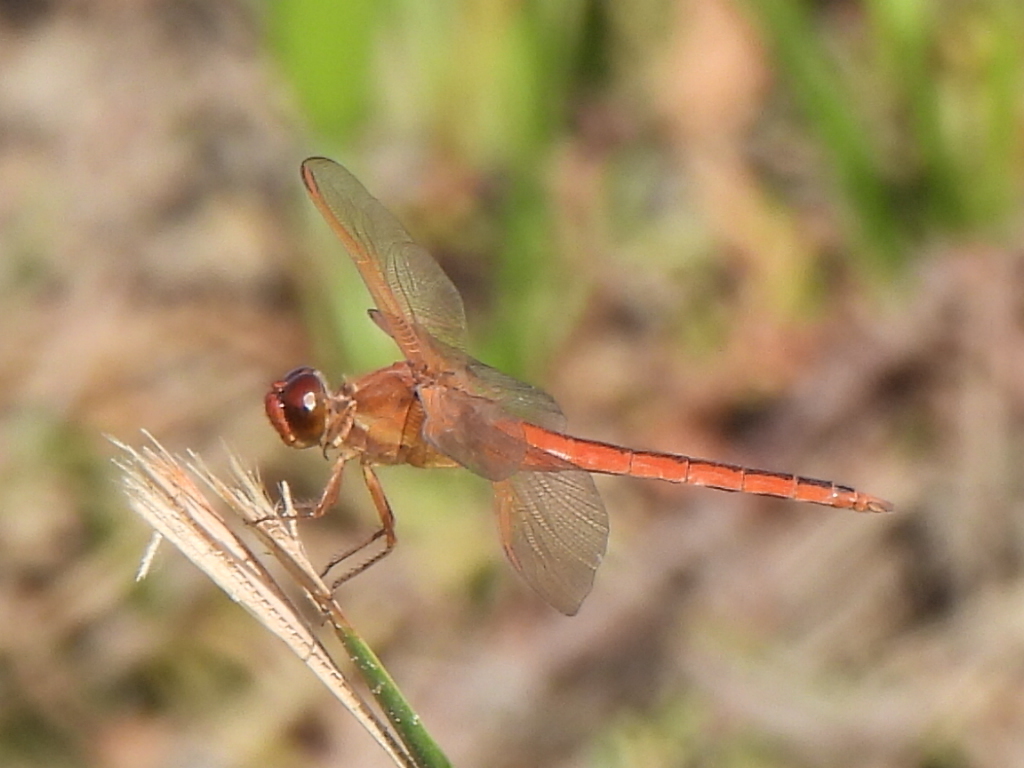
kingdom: Animalia
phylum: Arthropoda
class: Insecta
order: Odonata
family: Libellulidae
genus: Libellula
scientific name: Libellula needhami
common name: Needham's skimmer
